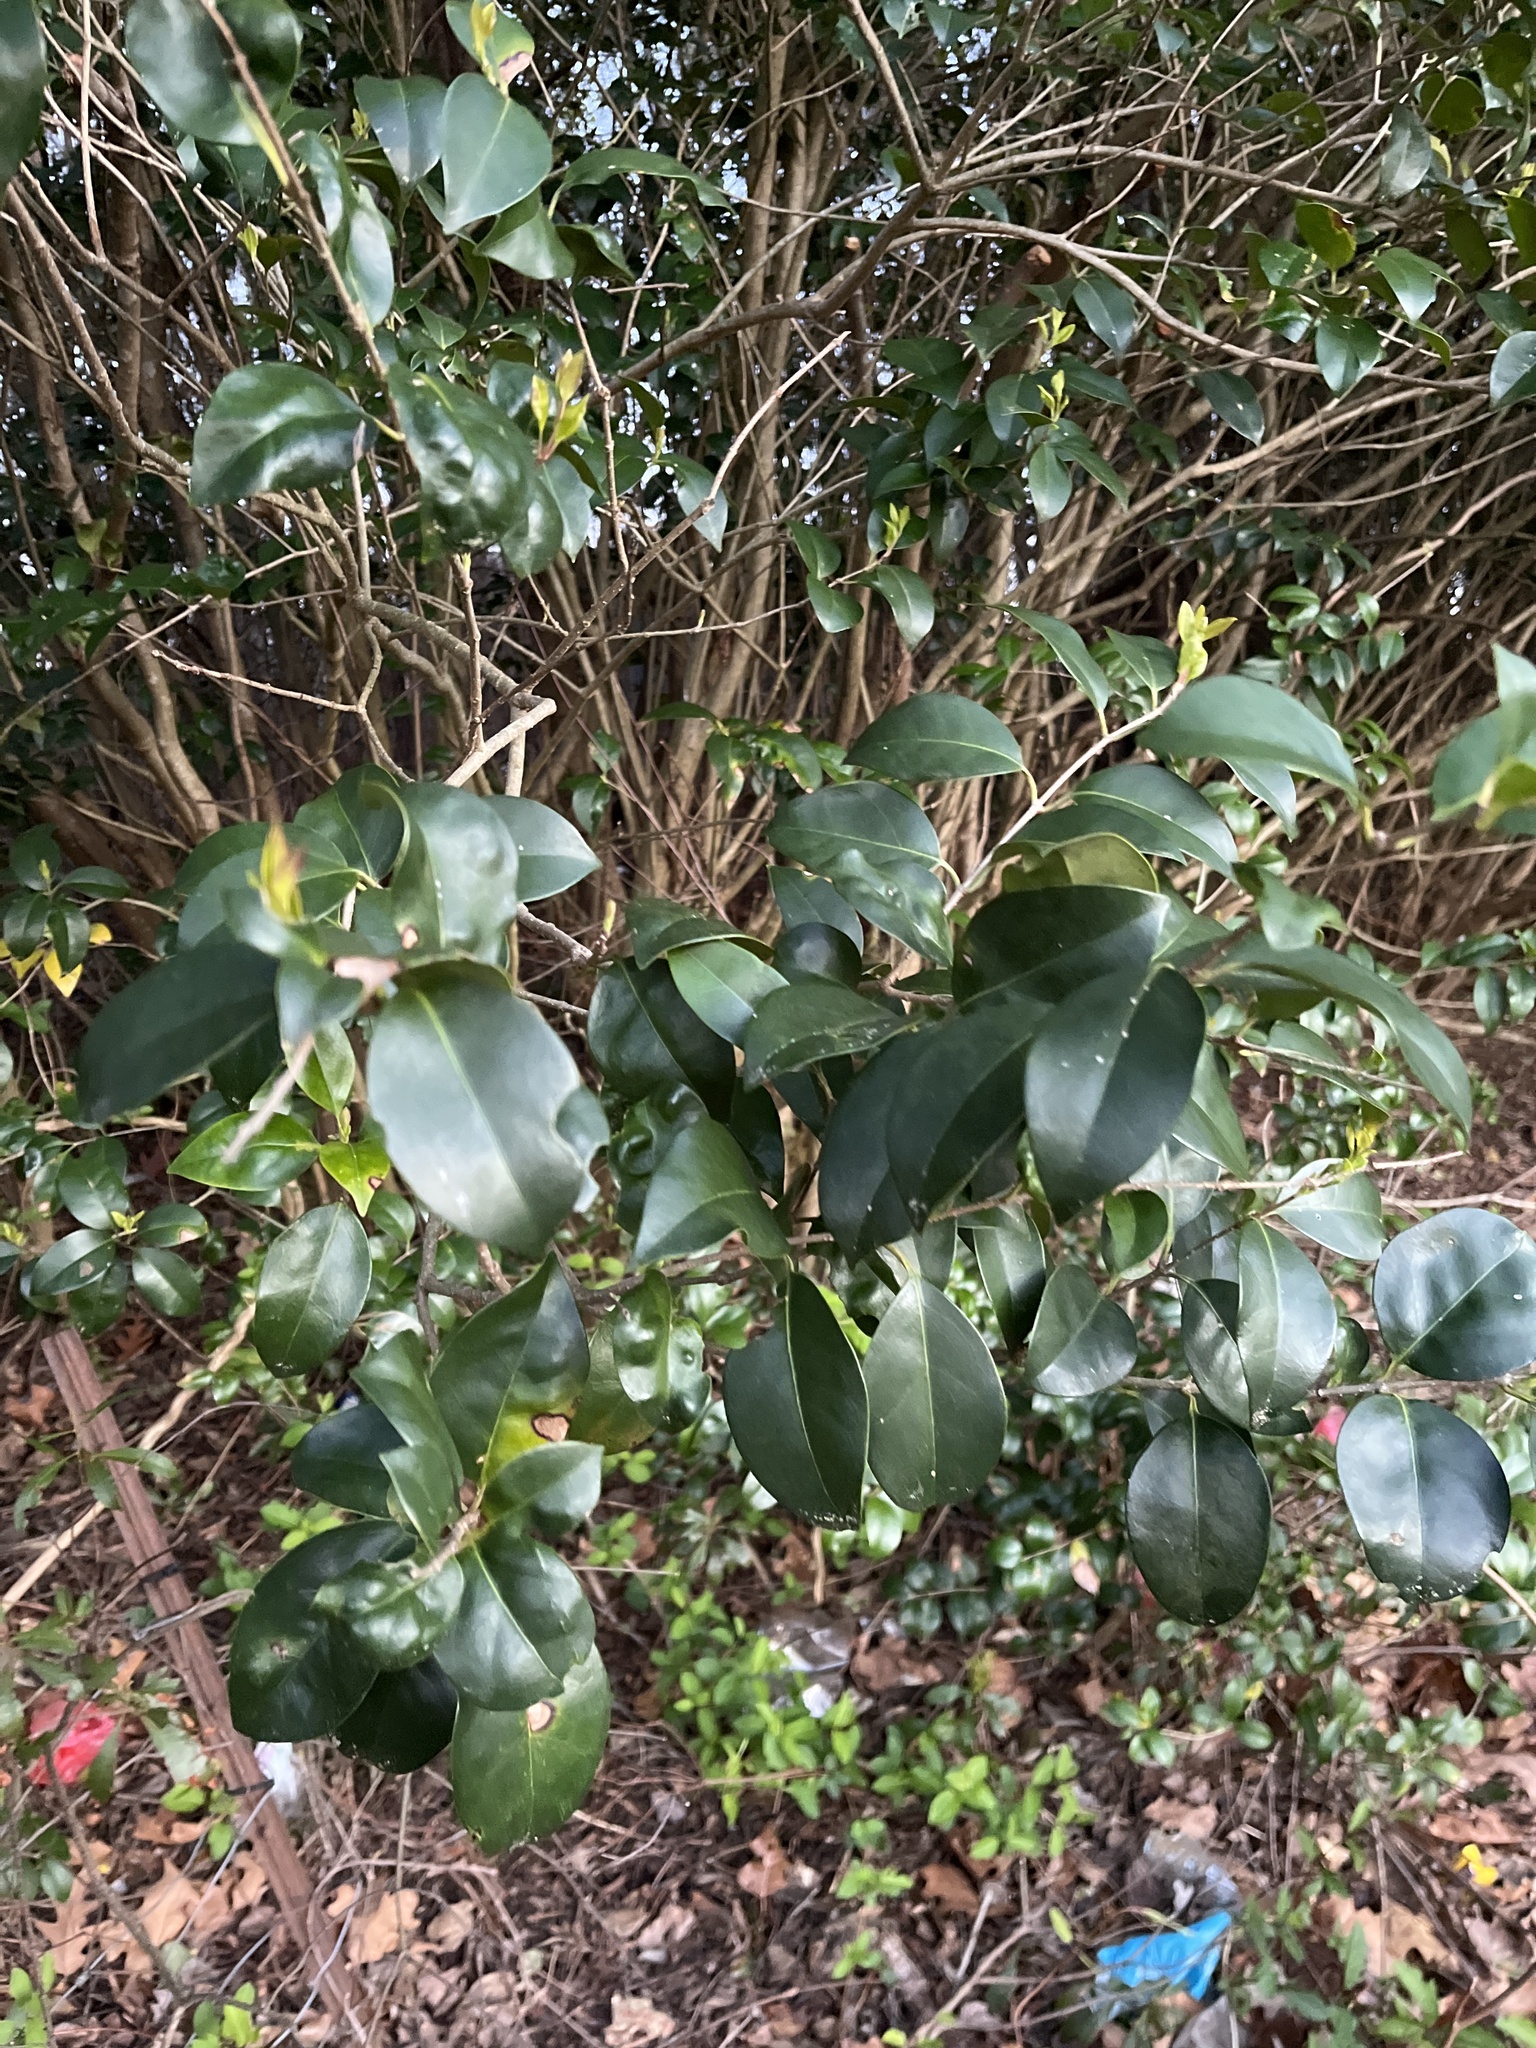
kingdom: Plantae
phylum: Tracheophyta
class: Magnoliopsida
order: Lamiales
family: Oleaceae
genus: Ligustrum
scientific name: Ligustrum japonicum
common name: Japanese privet
